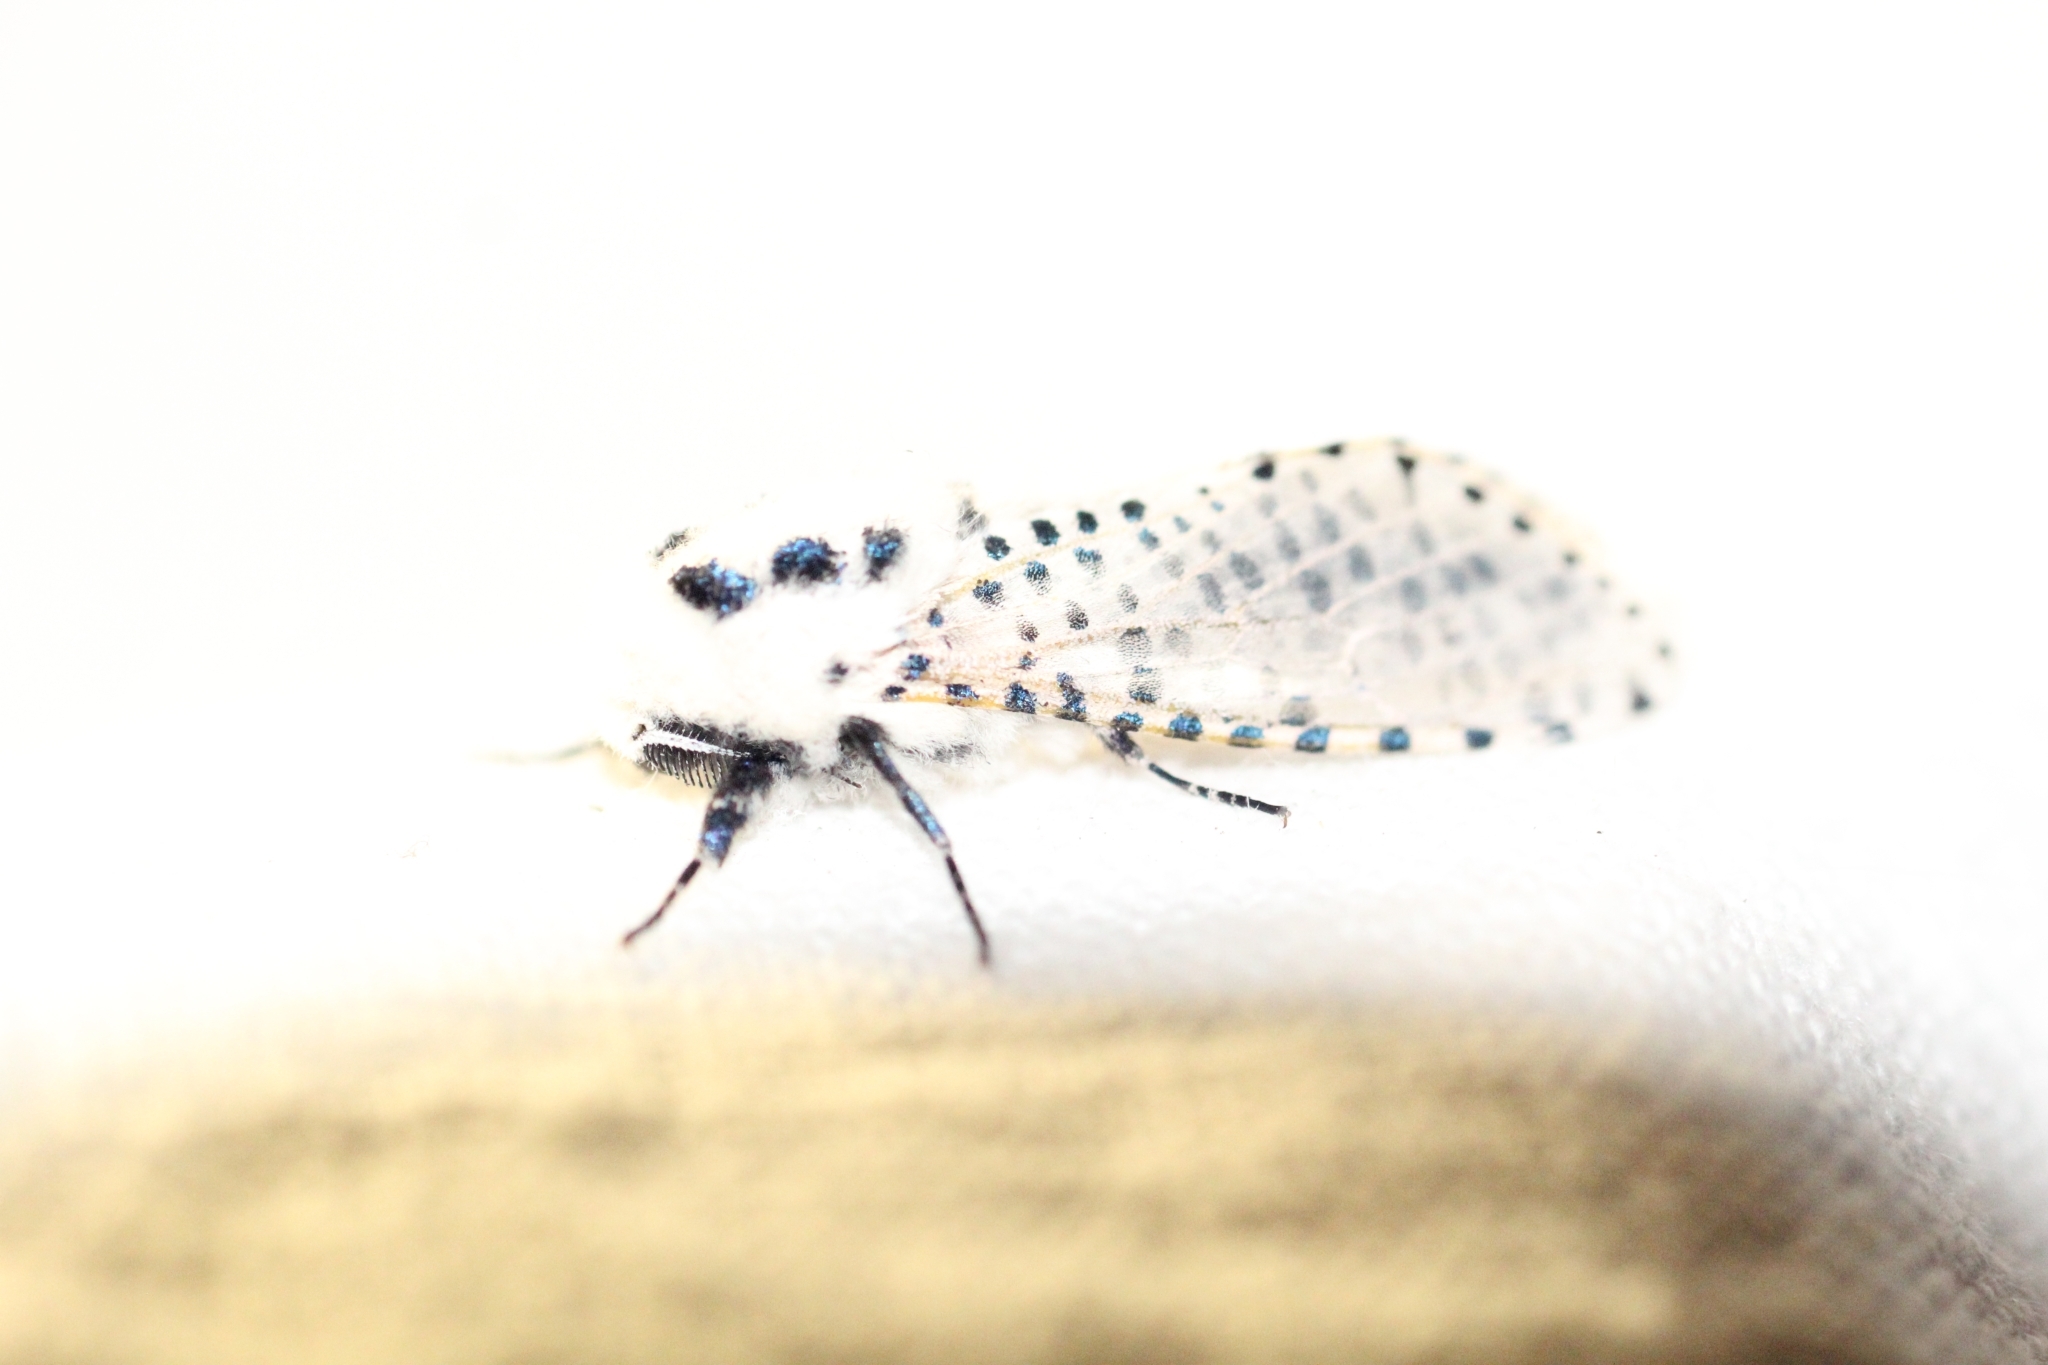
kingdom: Animalia
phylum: Arthropoda
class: Insecta
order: Lepidoptera
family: Cossidae
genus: Zeuzera
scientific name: Zeuzera pyrina
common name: Leopard moth
